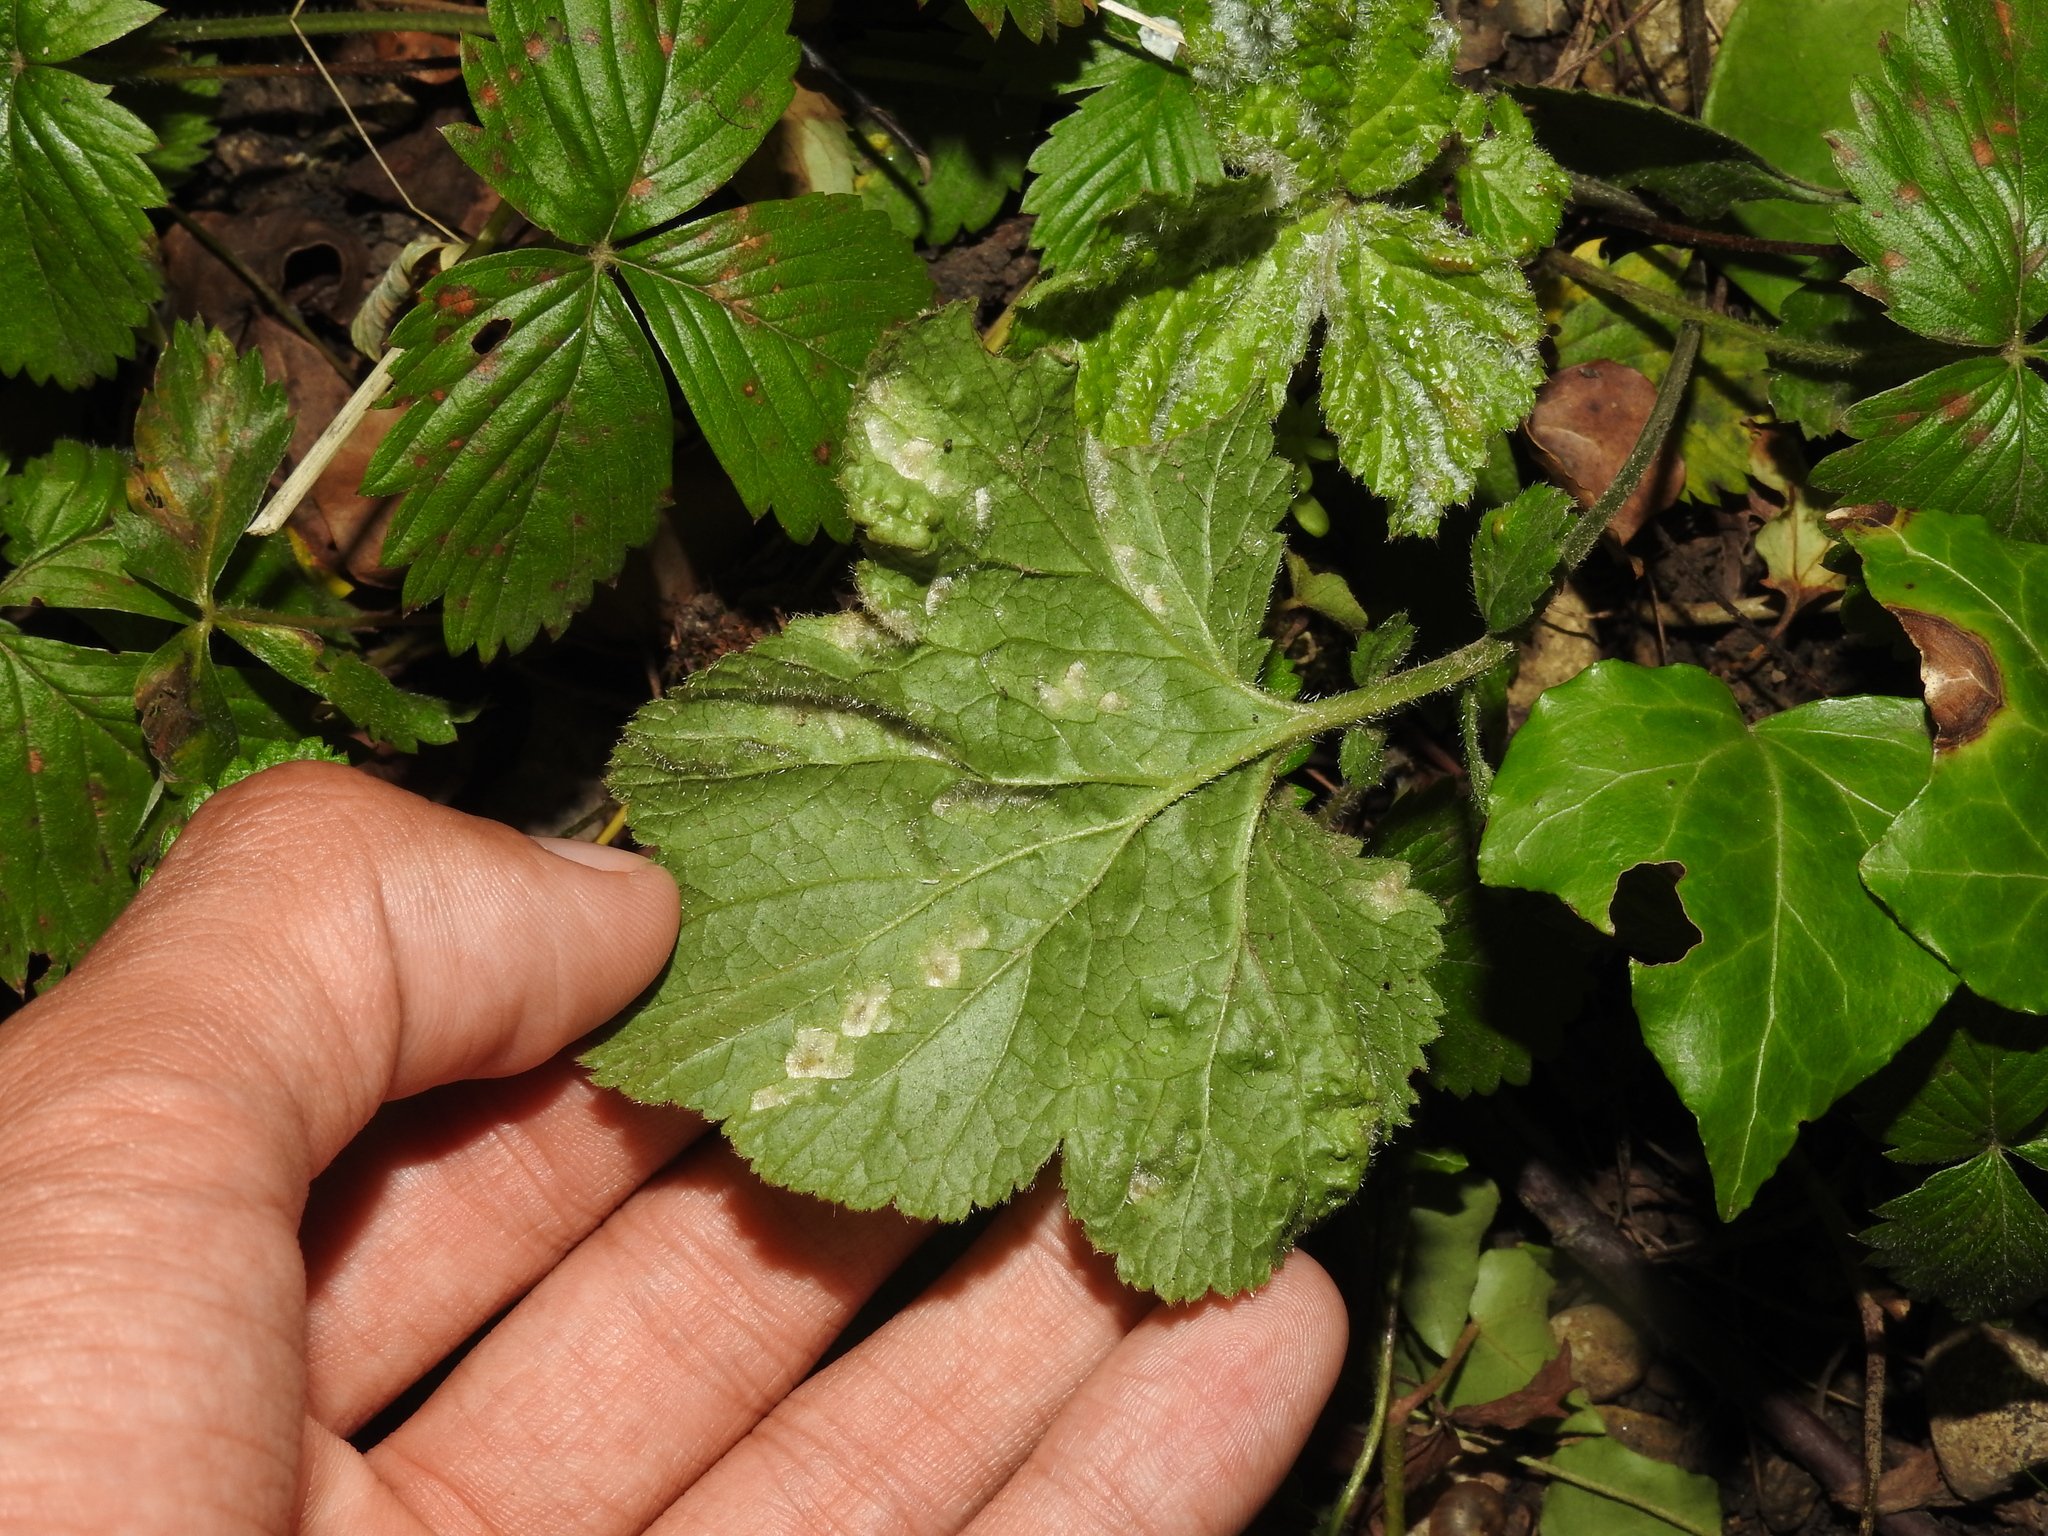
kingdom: Animalia
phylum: Arthropoda
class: Arachnida
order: Trombidiformes
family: Eriophyidae
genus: Cecidophyes
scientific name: Cecidophyes nudus
